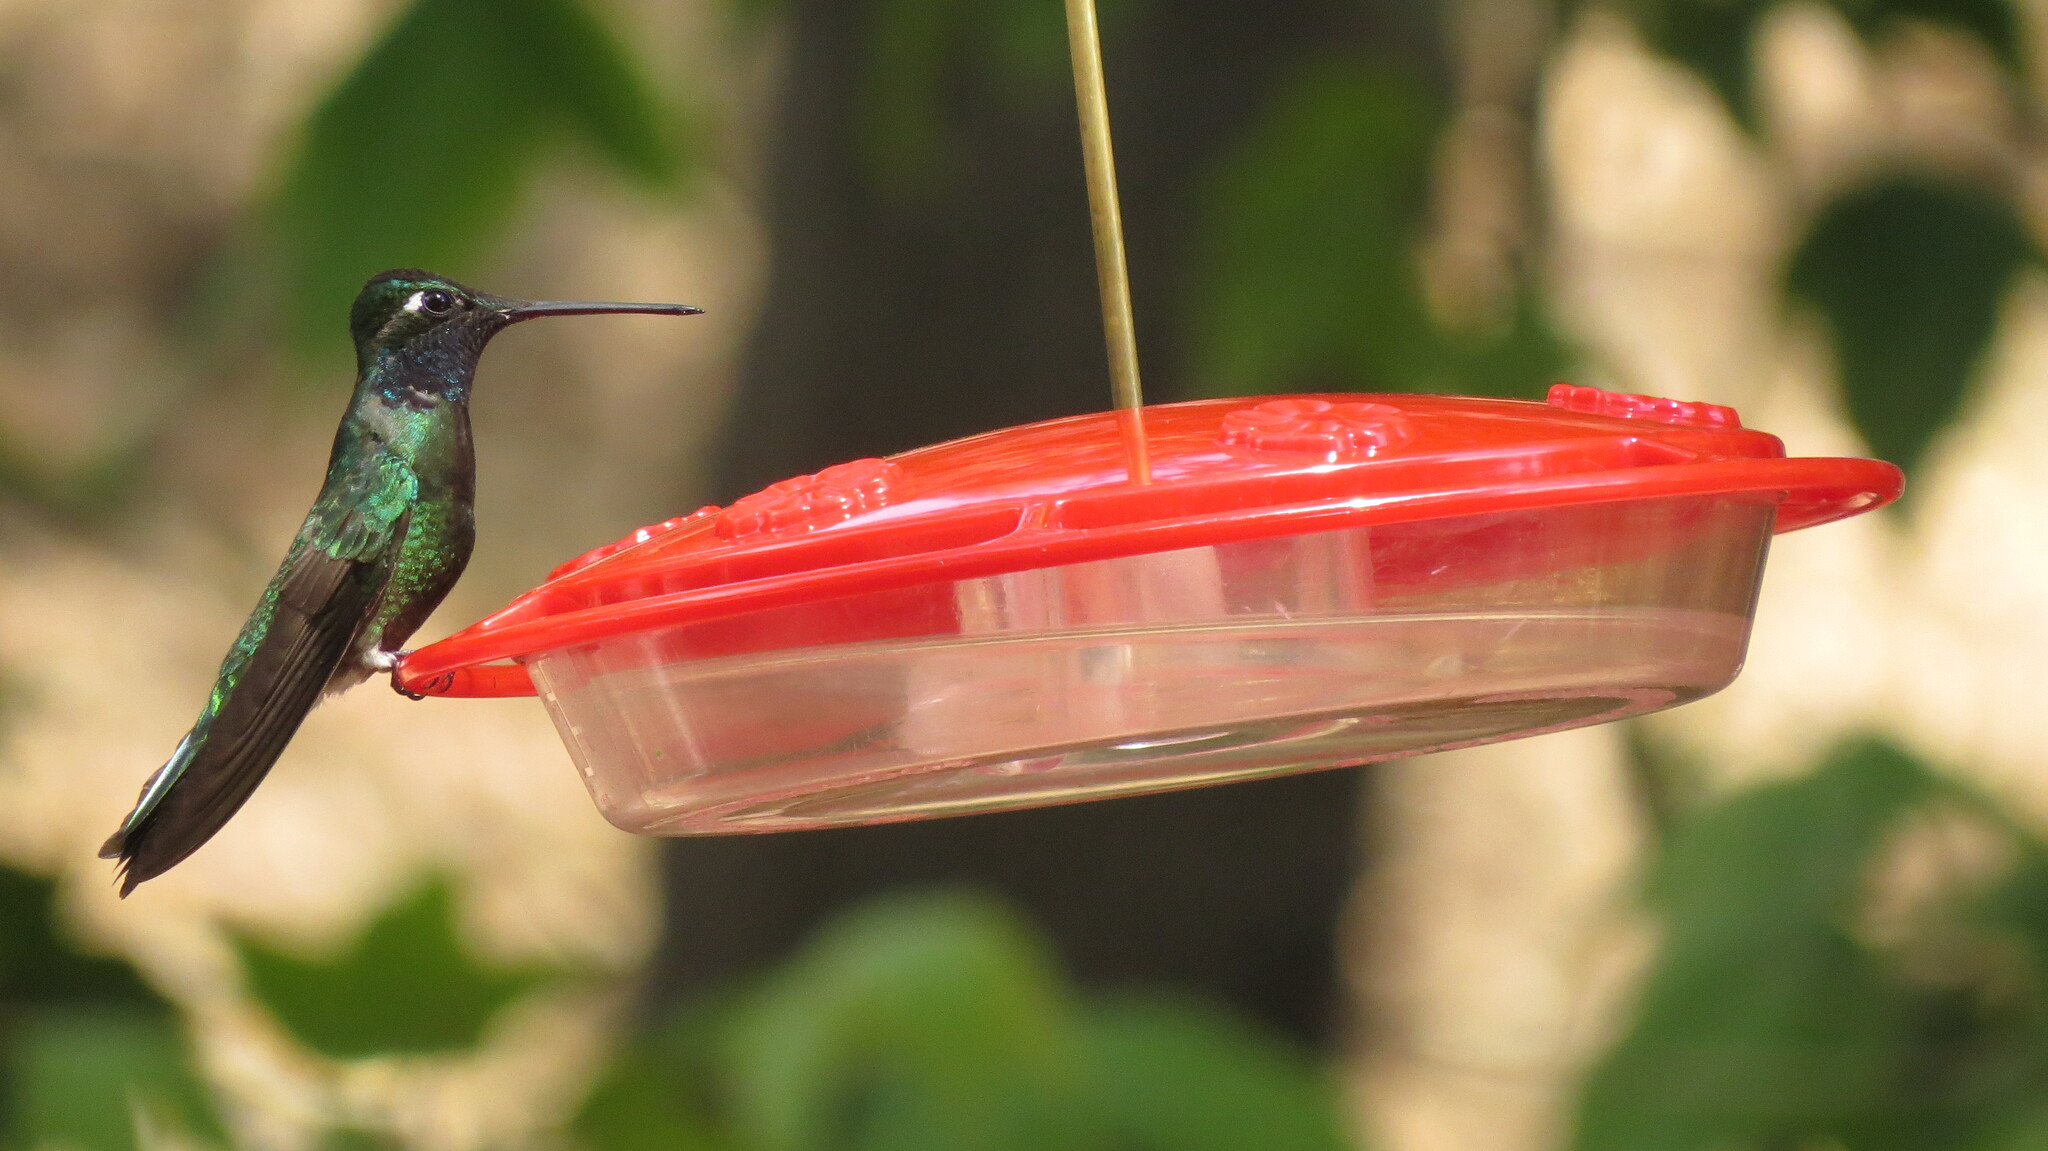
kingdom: Animalia
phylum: Chordata
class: Aves
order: Apodiformes
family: Trochilidae
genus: Eugenes
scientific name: Eugenes fulgens
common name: Magnificent hummingbird
